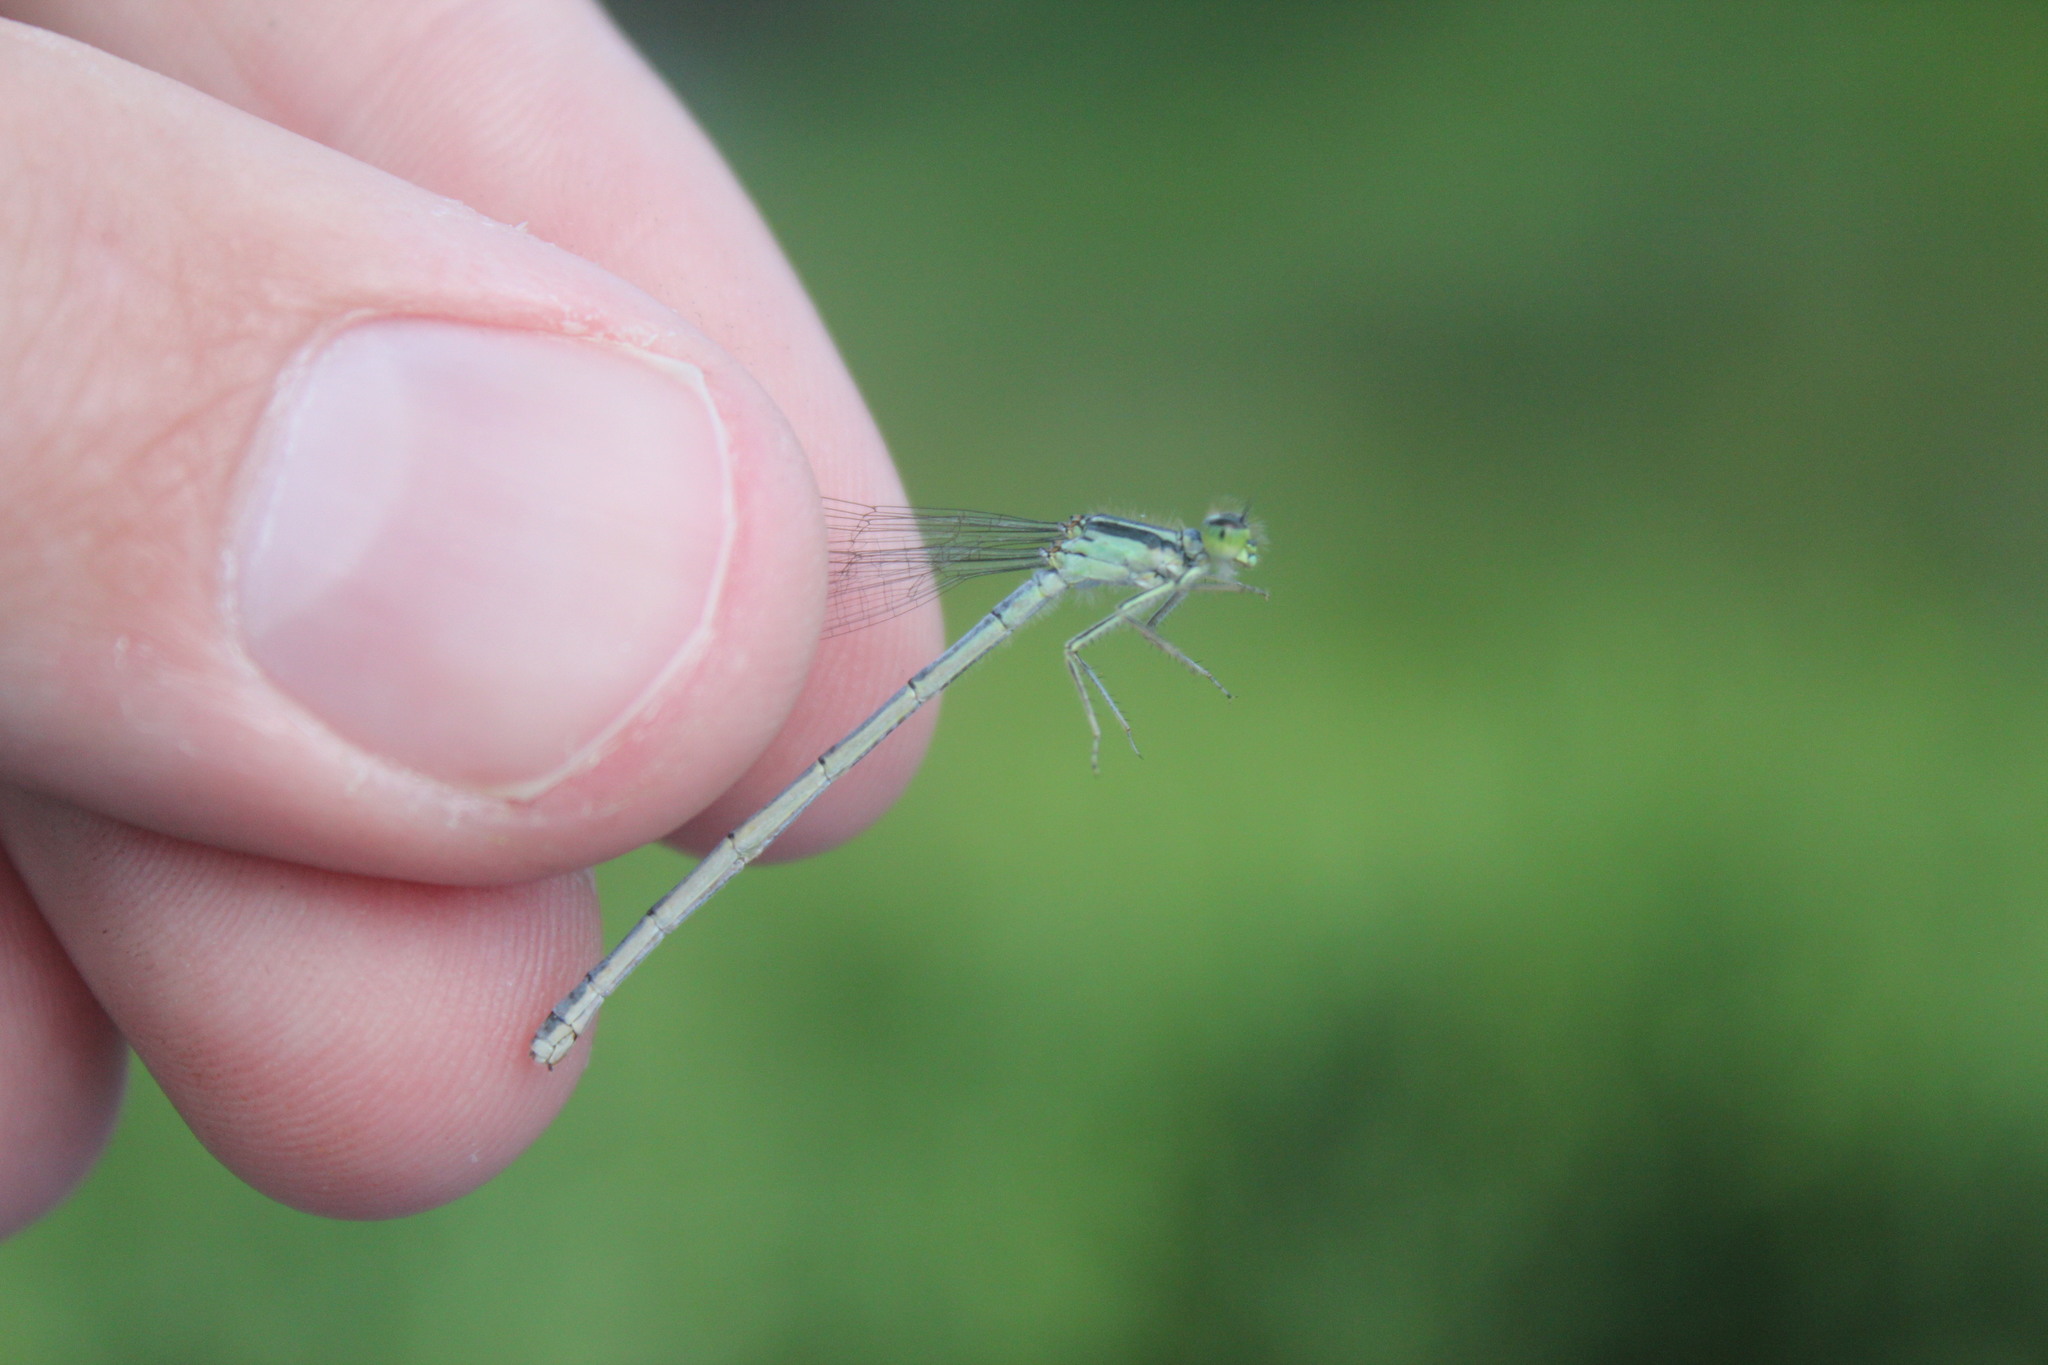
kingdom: Animalia
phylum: Arthropoda
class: Insecta
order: Odonata
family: Coenagrionidae
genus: Ischnura
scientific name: Ischnura verticalis
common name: Eastern forktail
